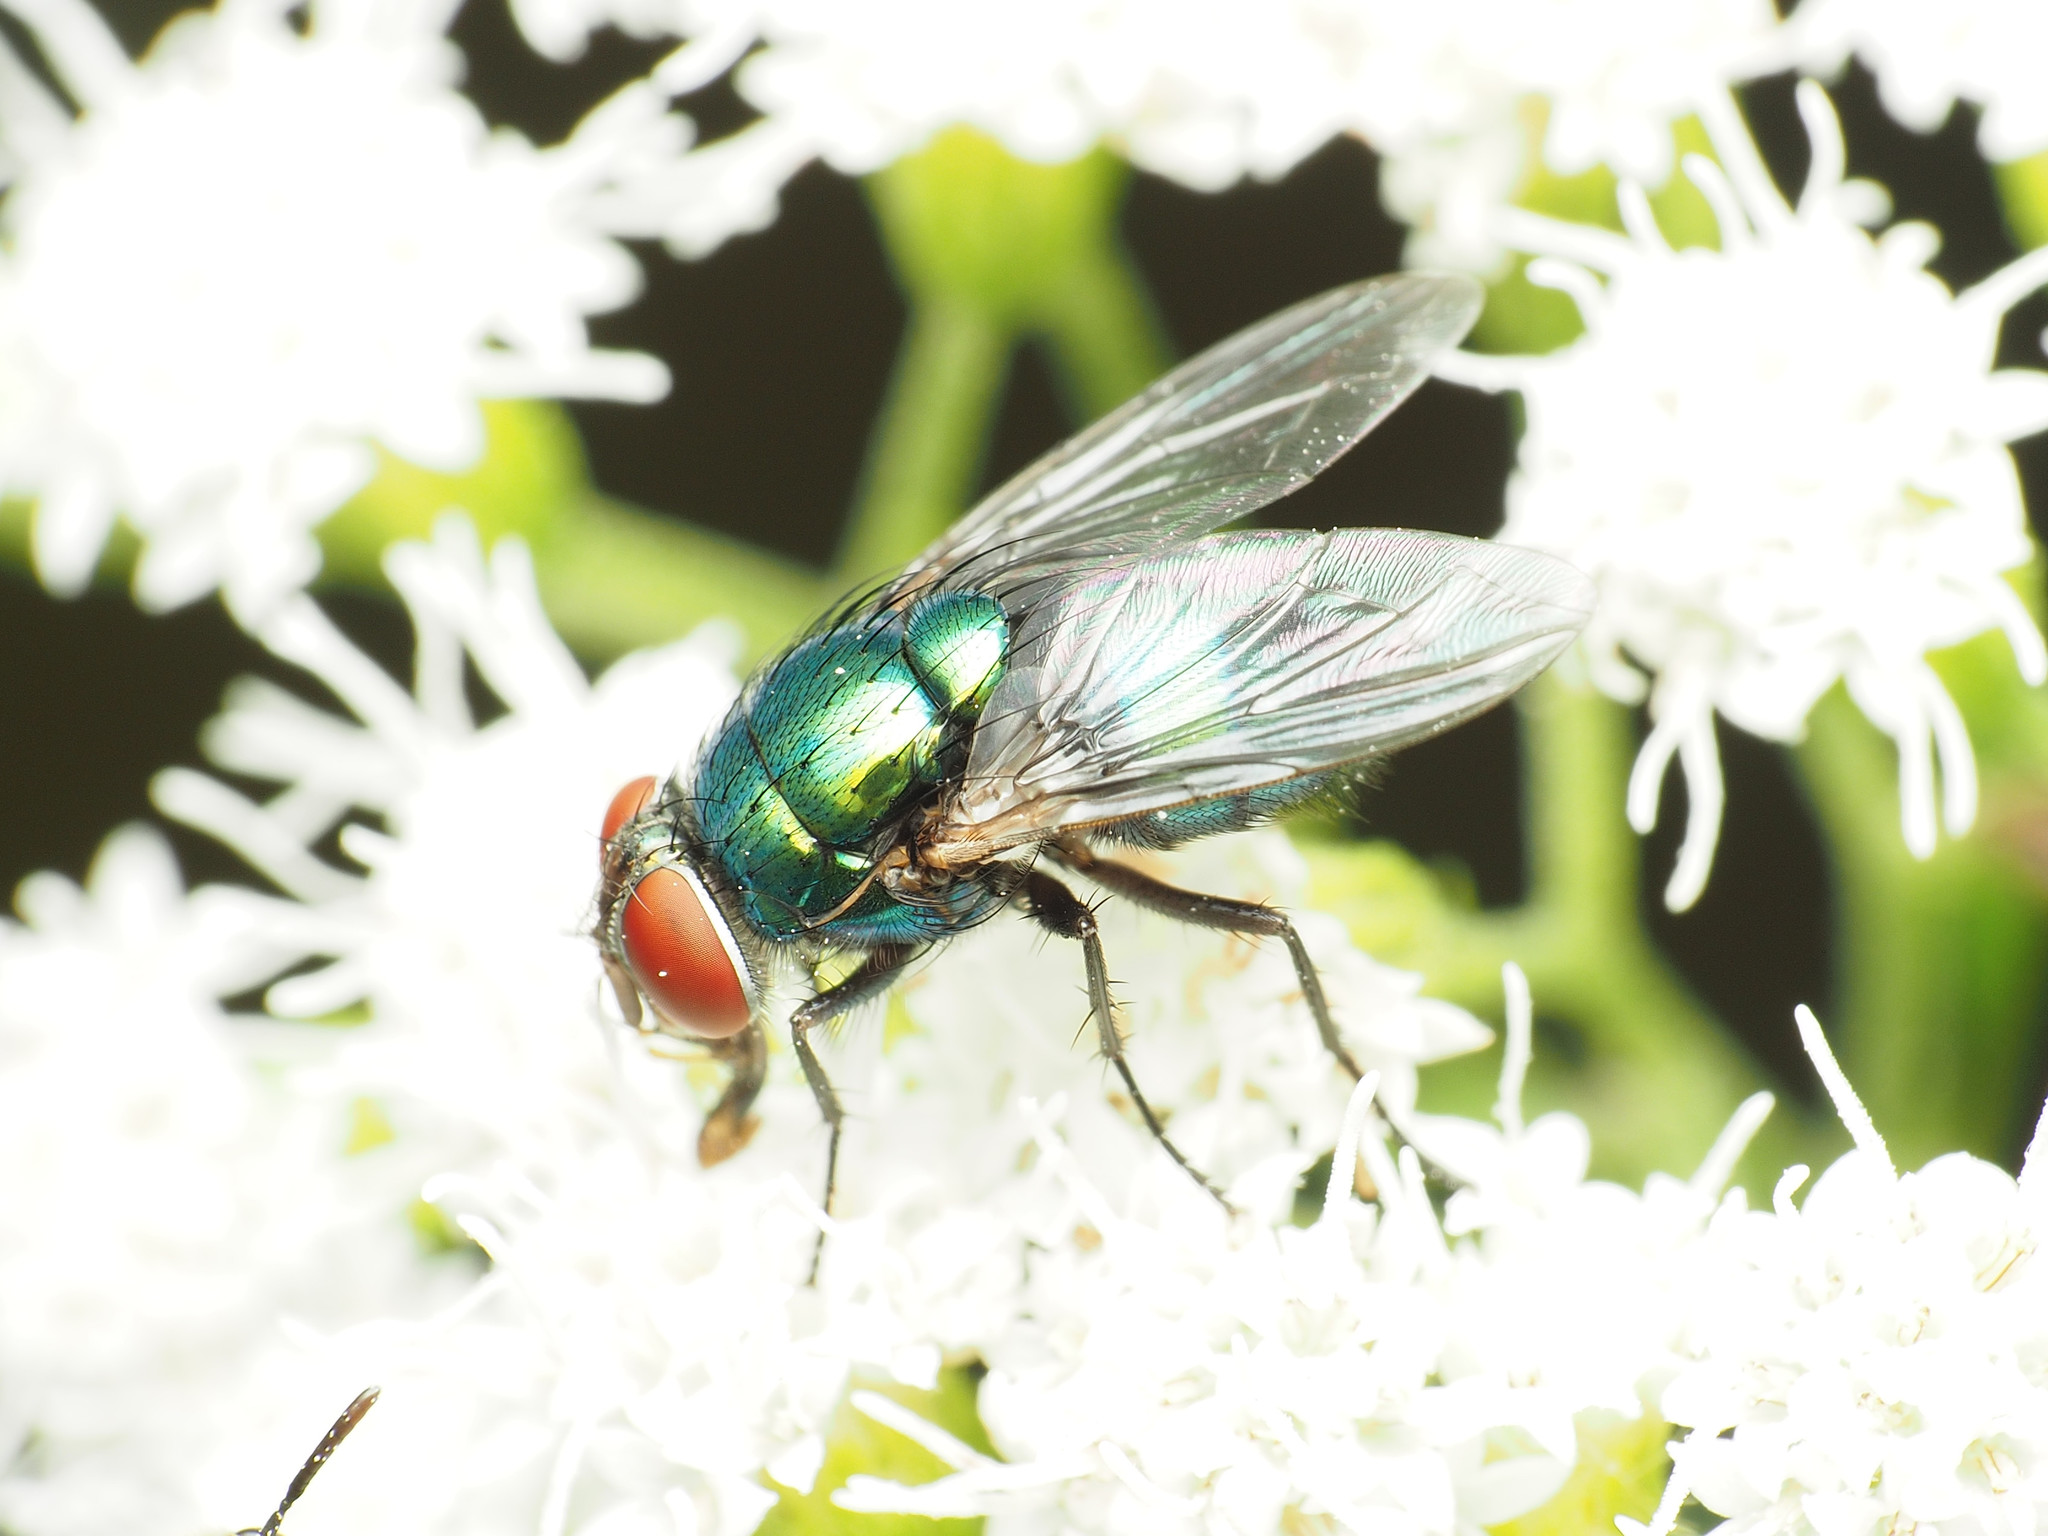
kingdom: Animalia
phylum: Arthropoda
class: Insecta
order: Diptera
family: Calliphoridae
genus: Lucilia
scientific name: Lucilia illustris
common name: Illustrious greenbottle
